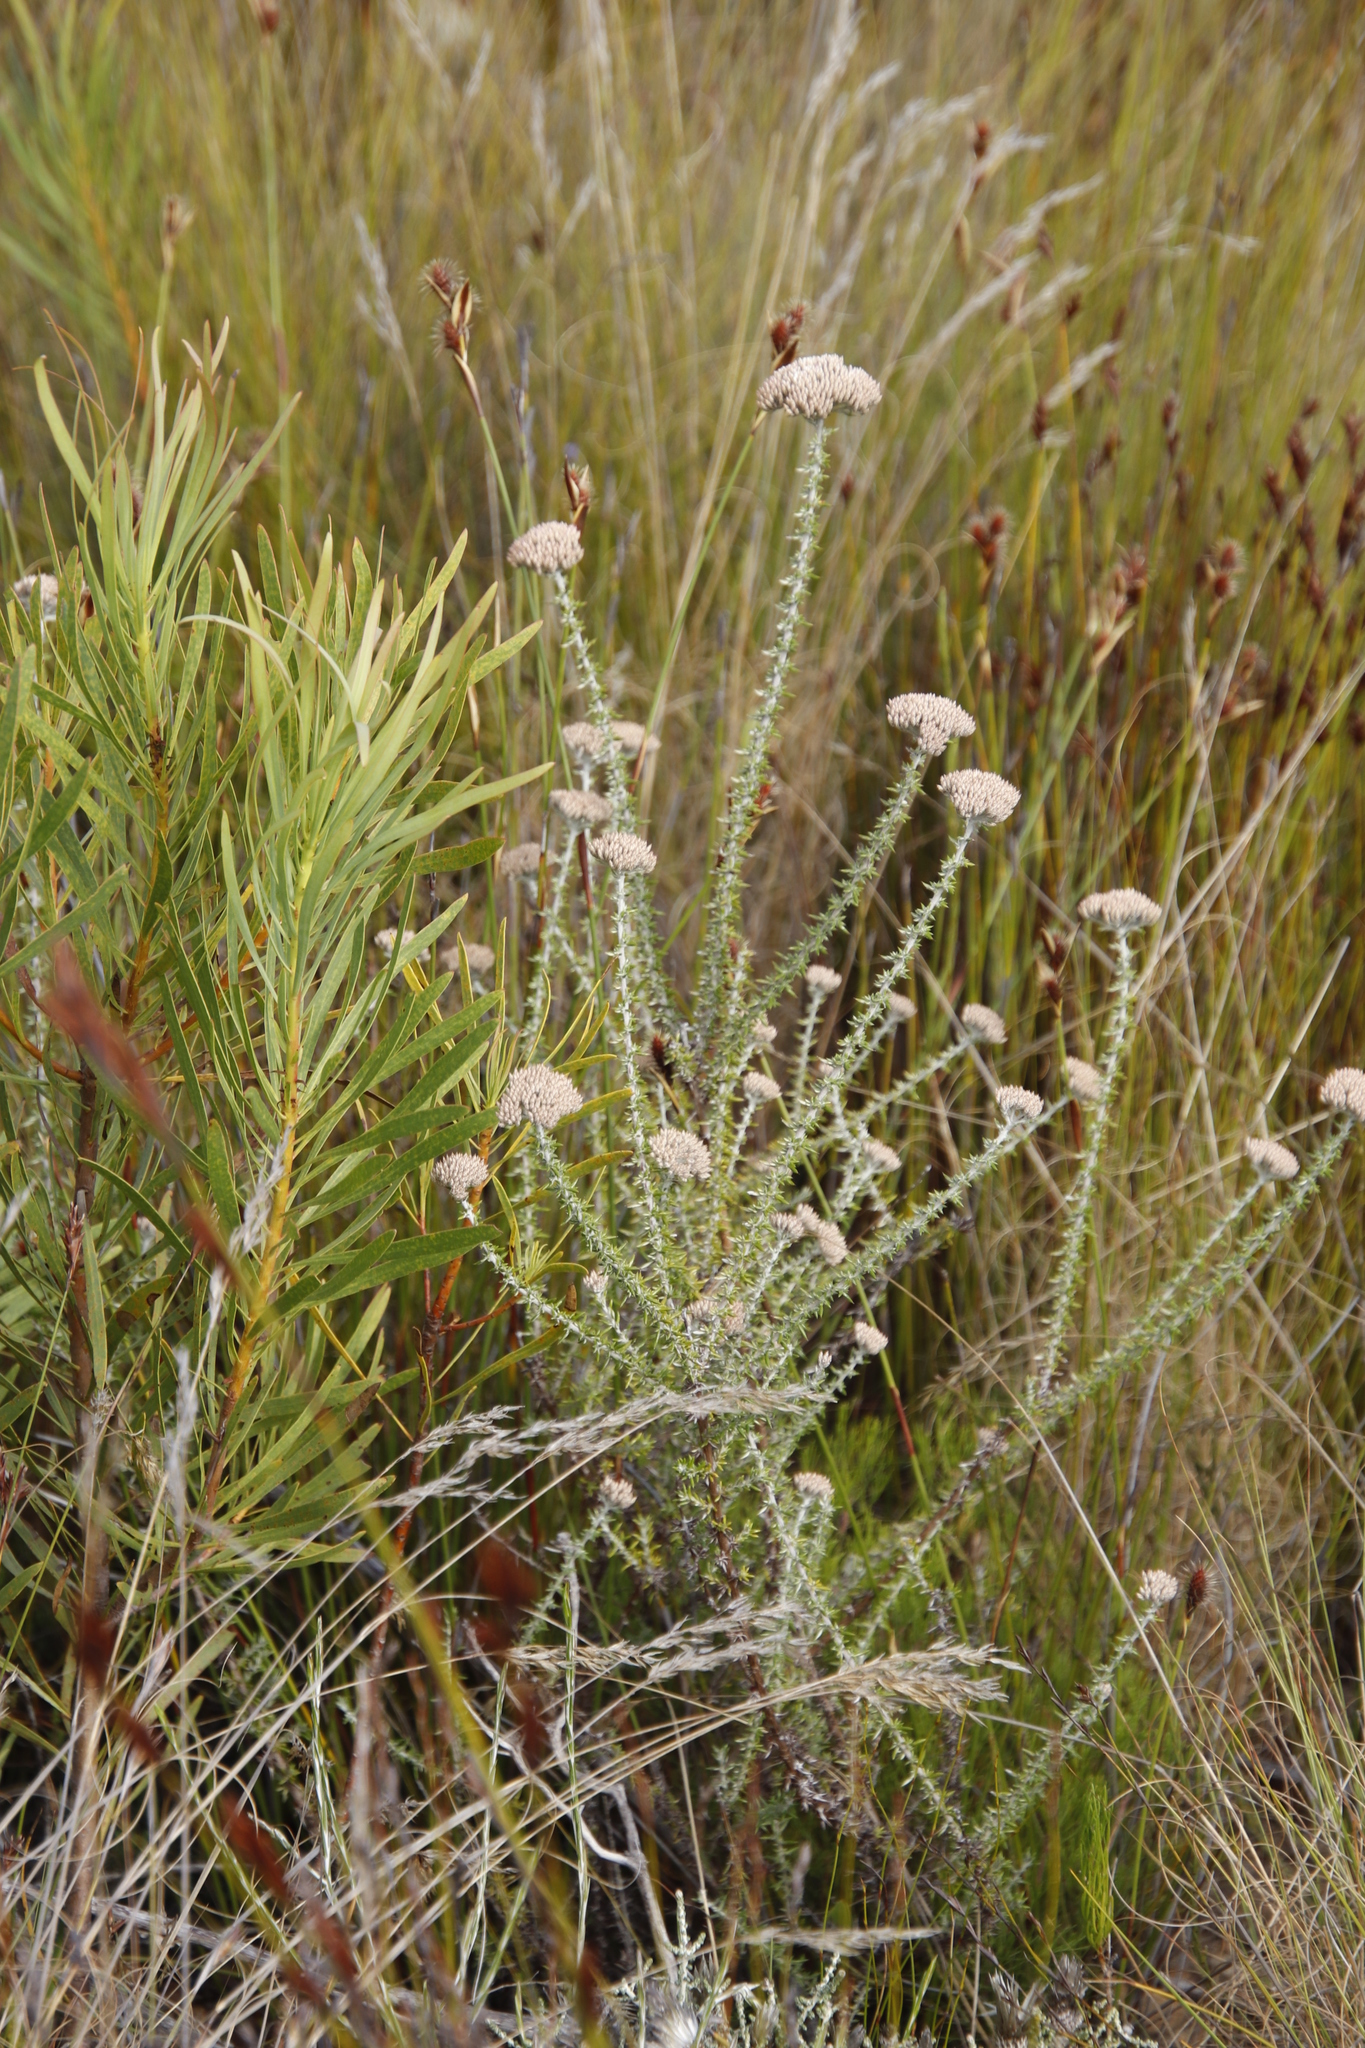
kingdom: Plantae
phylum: Tracheophyta
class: Magnoliopsida
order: Asterales
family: Asteraceae
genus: Metalasia
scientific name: Metalasia densa
